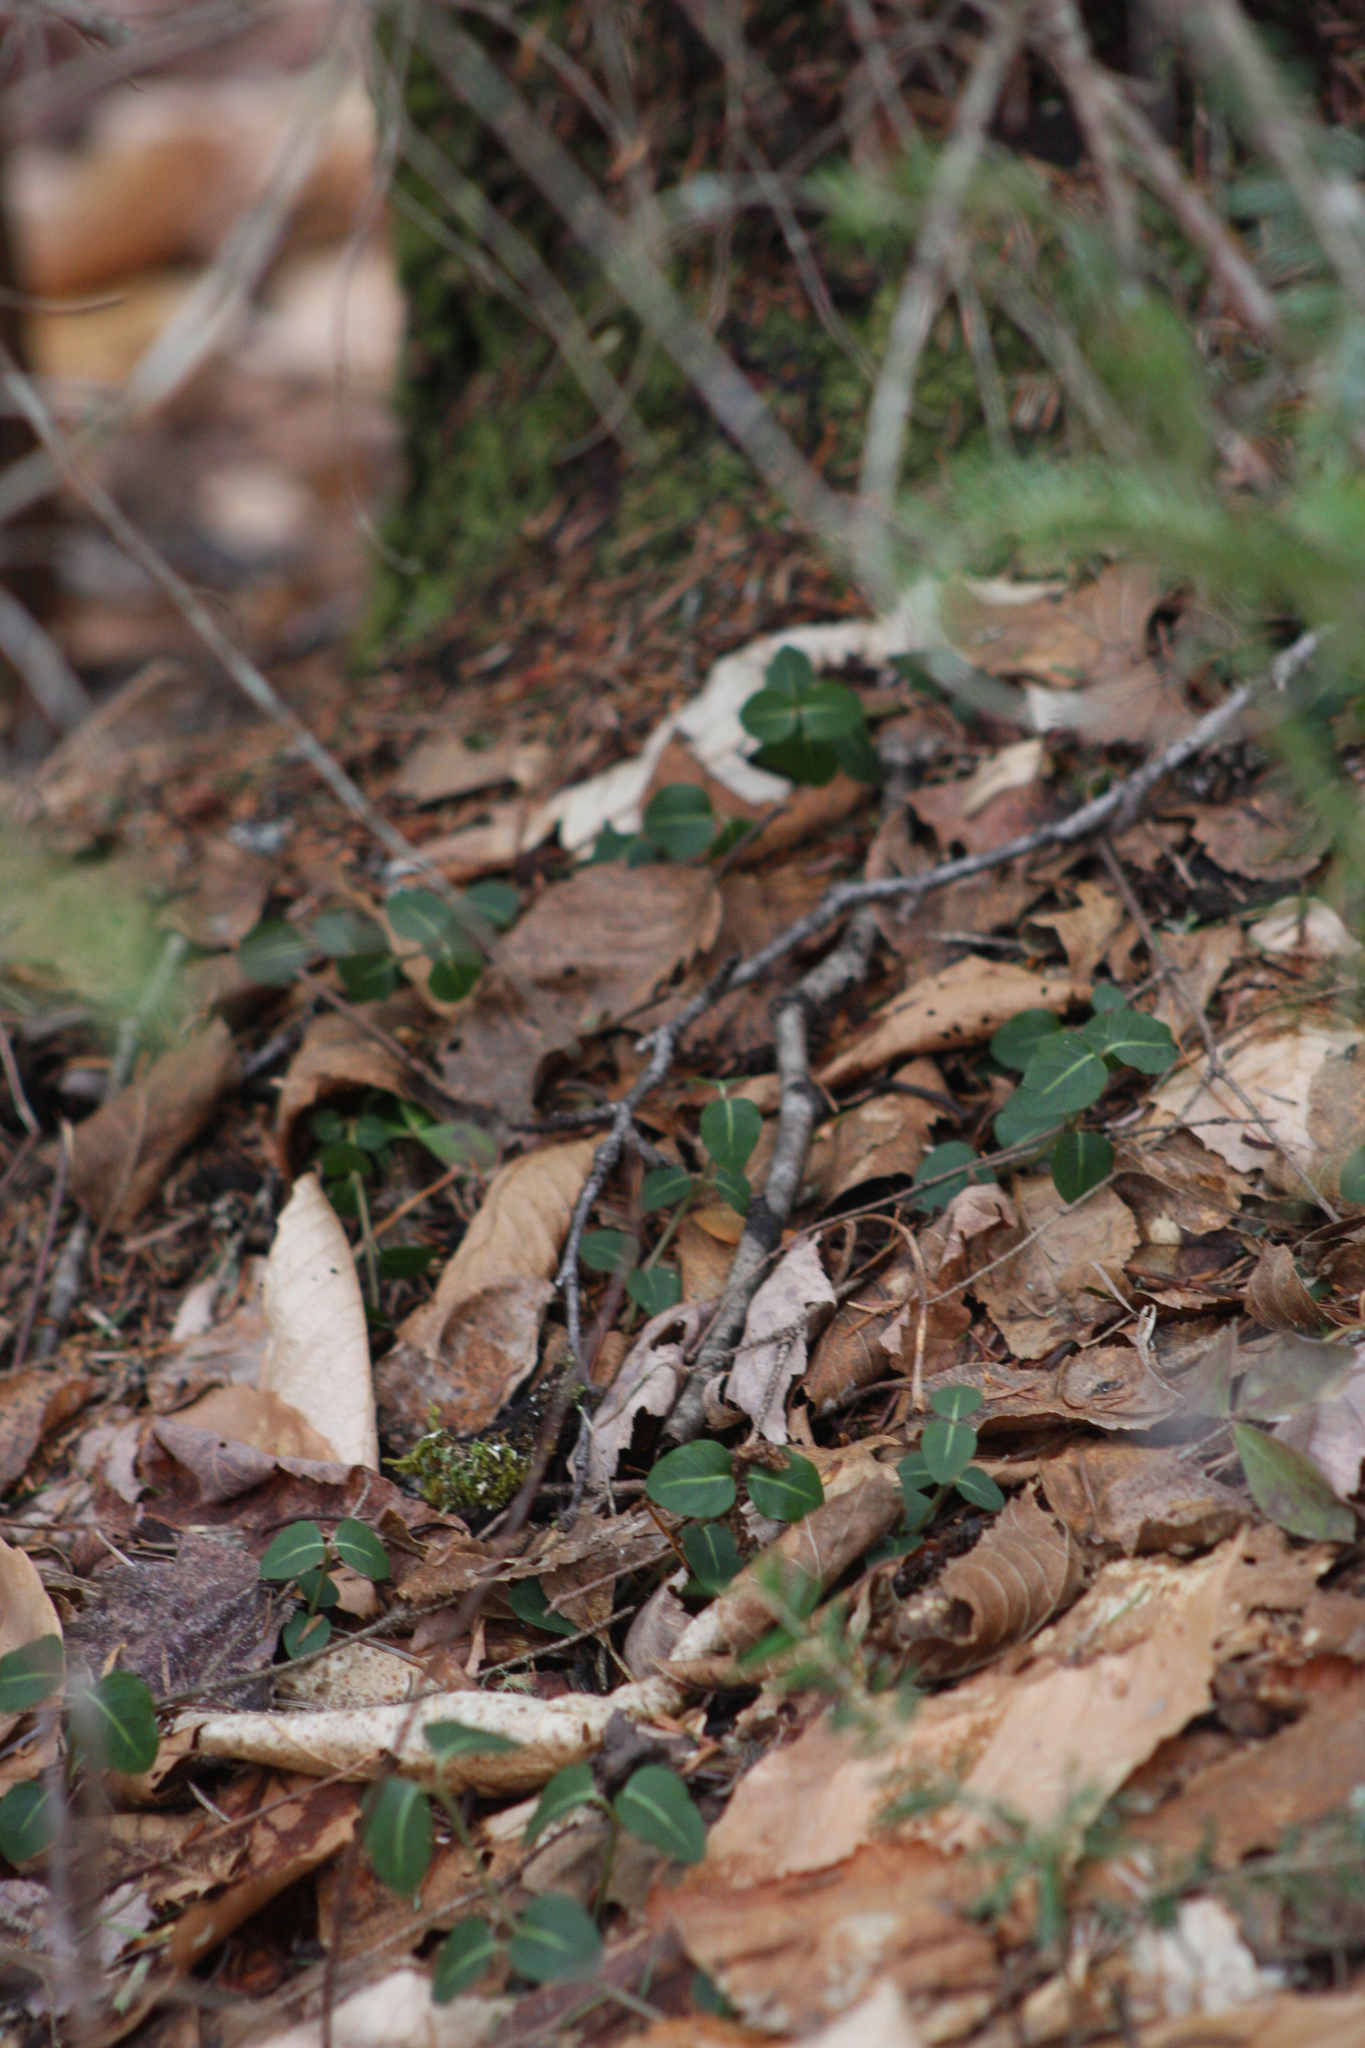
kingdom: Plantae
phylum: Tracheophyta
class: Magnoliopsida
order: Gentianales
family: Rubiaceae
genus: Mitchella
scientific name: Mitchella repens
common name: Partridge-berry
